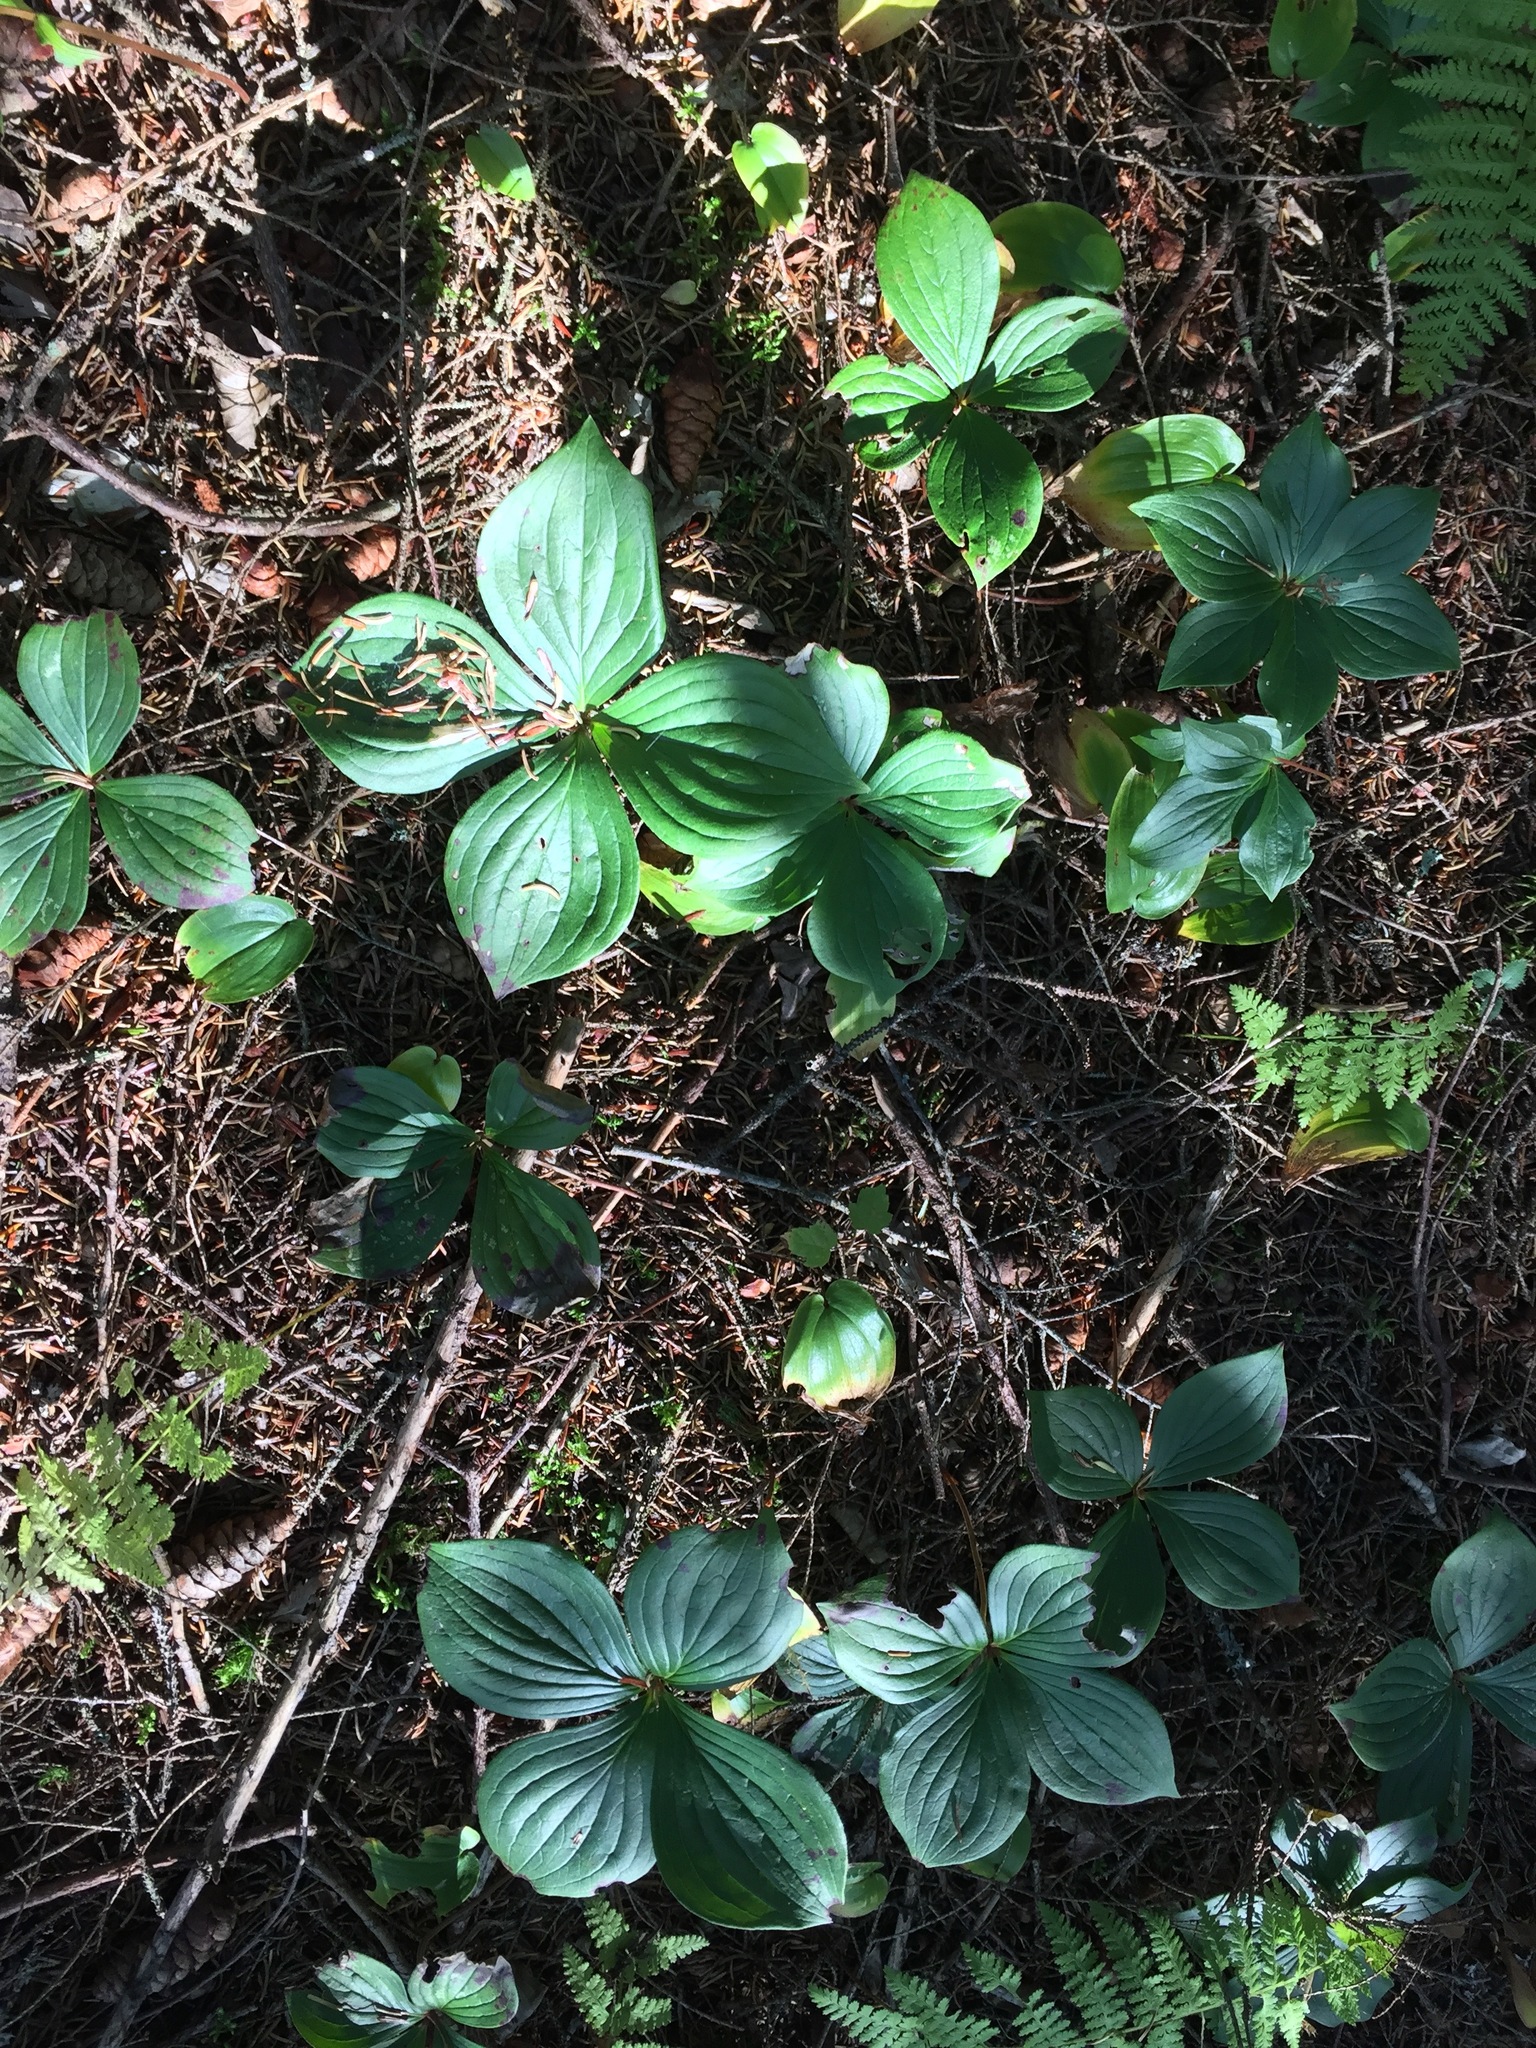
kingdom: Plantae
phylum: Tracheophyta
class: Magnoliopsida
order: Cornales
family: Cornaceae
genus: Cornus
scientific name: Cornus canadensis
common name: Creeping dogwood
